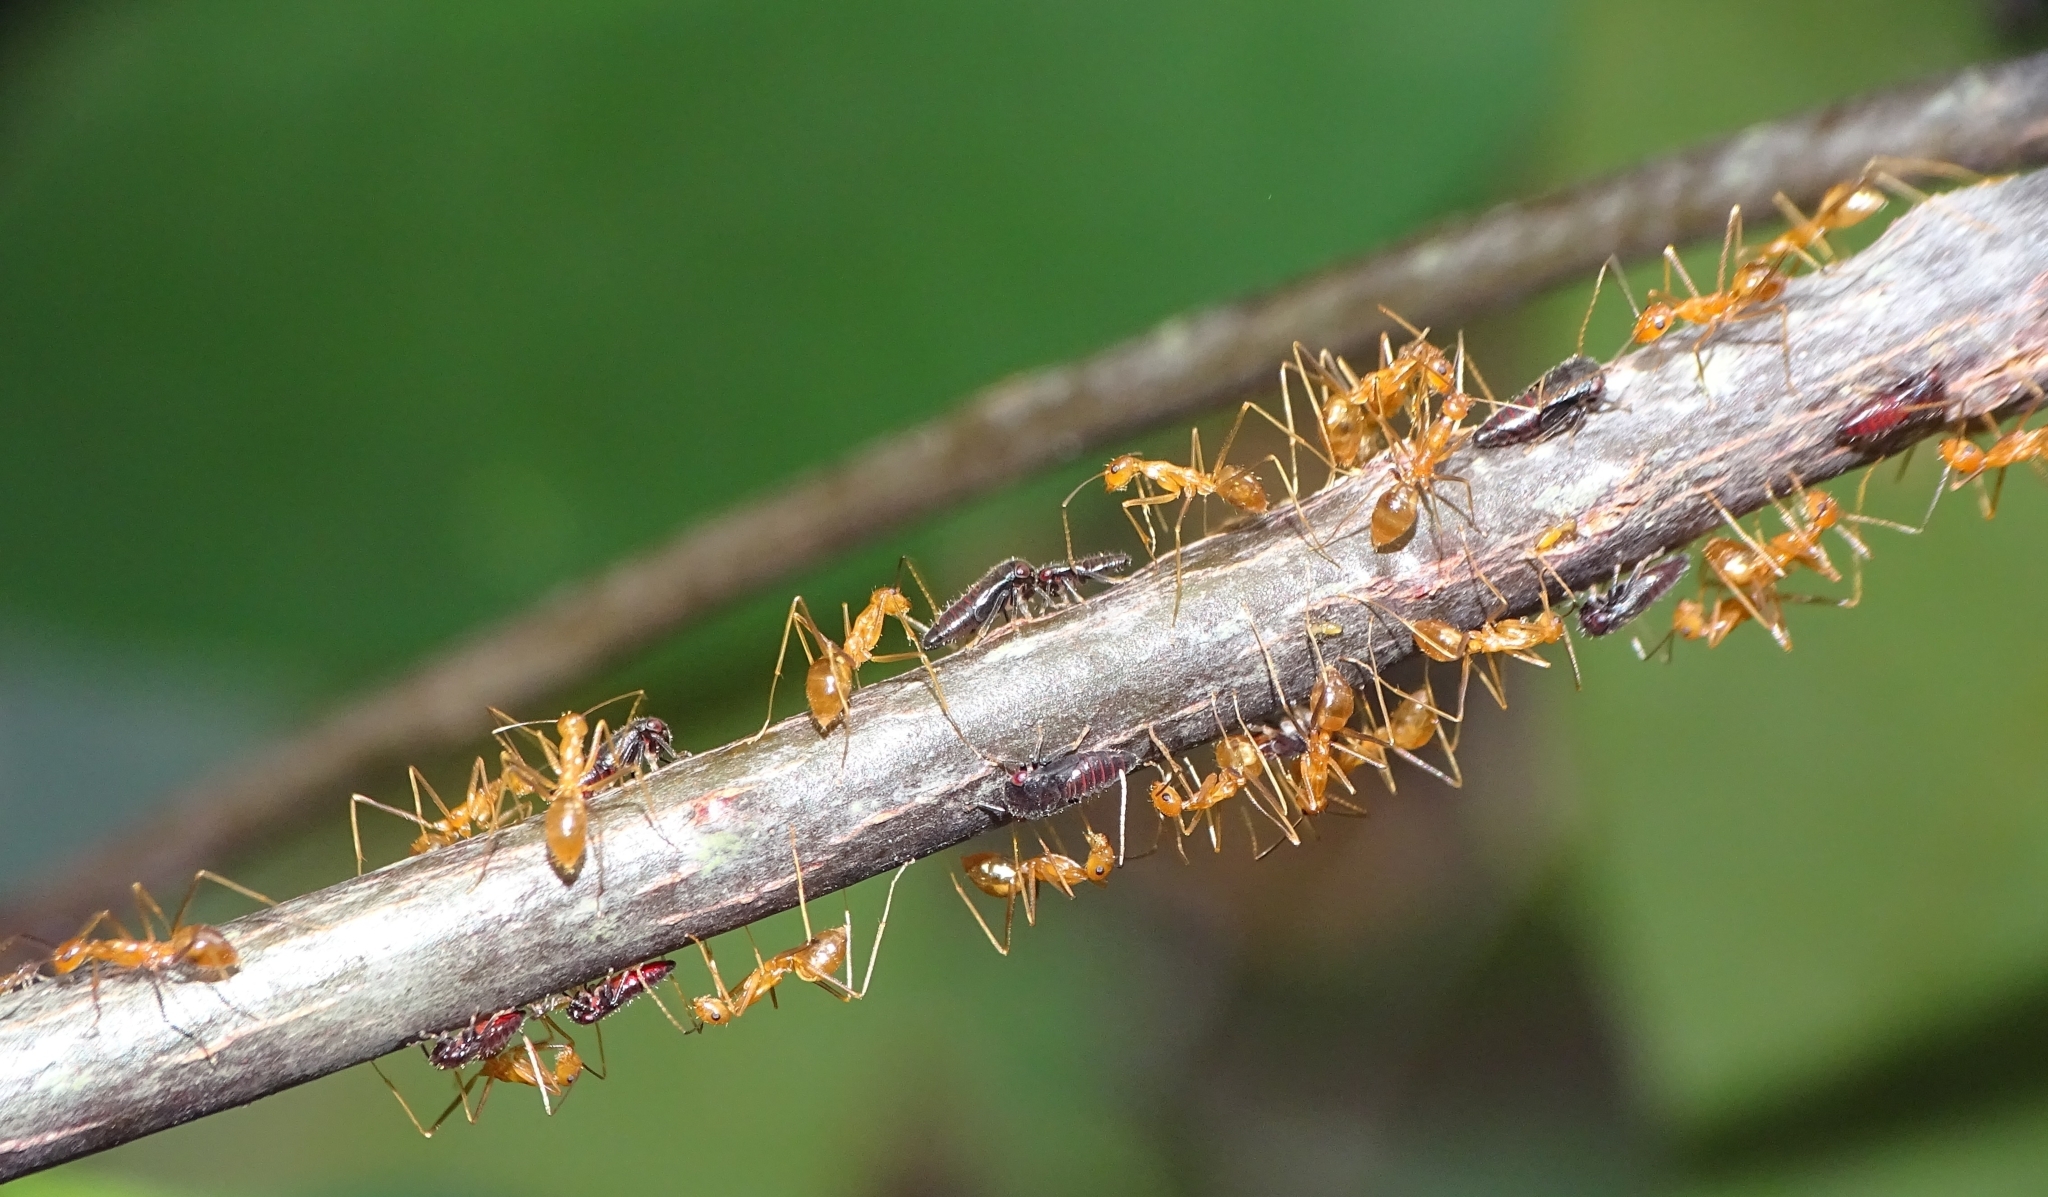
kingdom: Animalia
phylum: Arthropoda
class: Insecta
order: Hymenoptera
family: Formicidae
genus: Anoplolepis
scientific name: Anoplolepis gracilipes
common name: Ant
